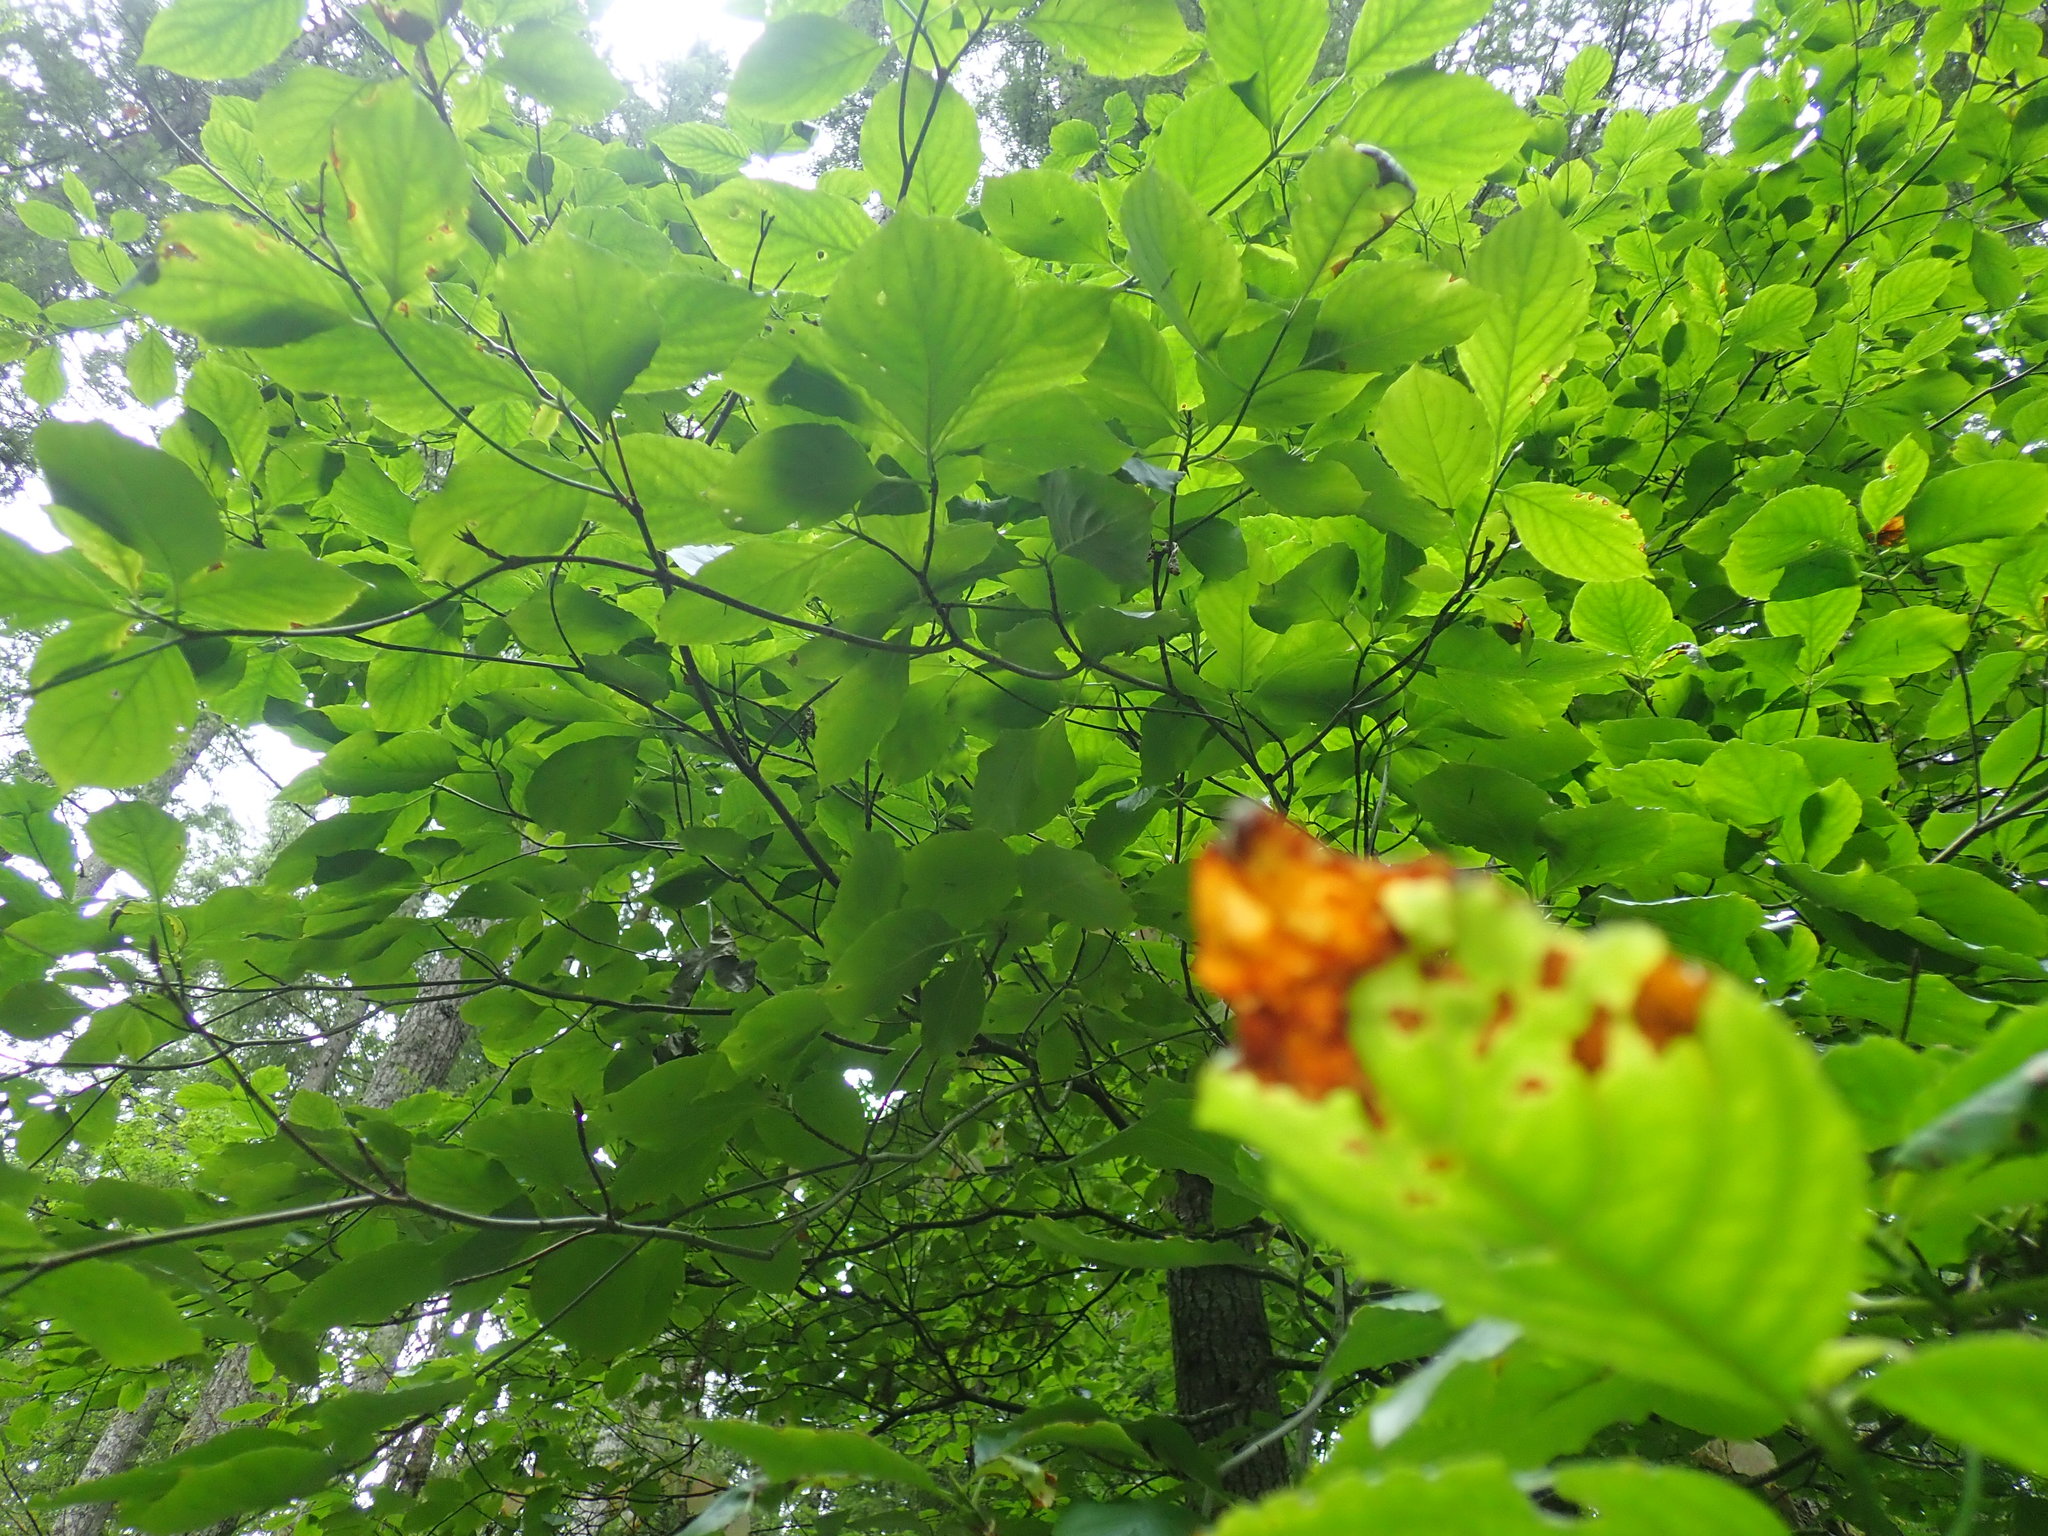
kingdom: Plantae
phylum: Tracheophyta
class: Magnoliopsida
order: Cornales
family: Cornaceae
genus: Cornus
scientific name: Cornus nuttallii
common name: Pacific dogwood
